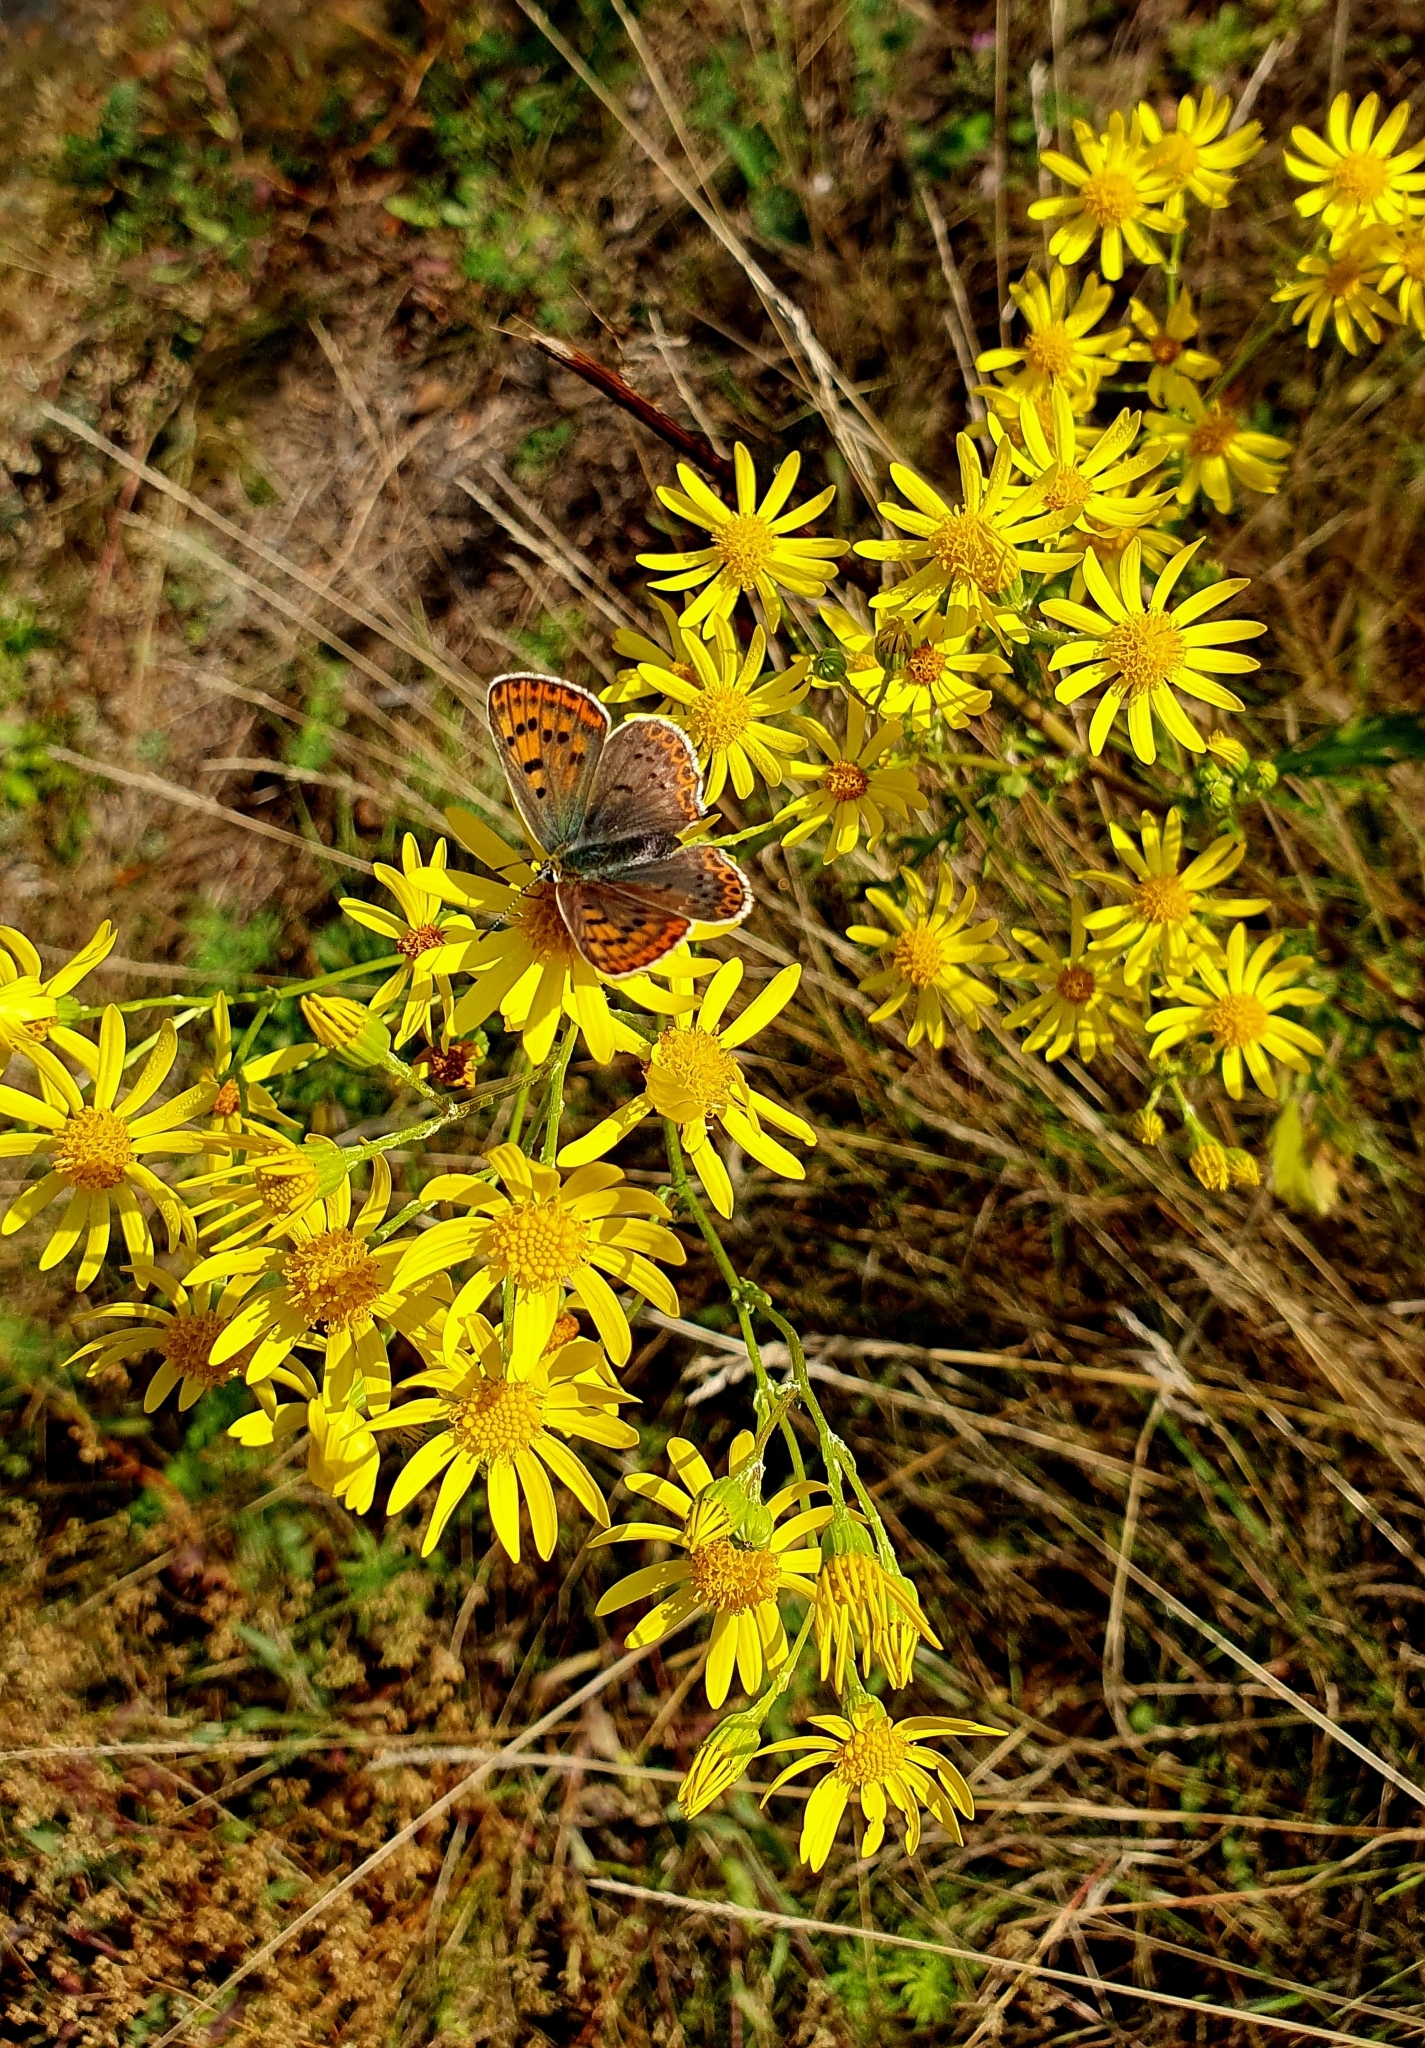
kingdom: Plantae
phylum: Tracheophyta
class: Magnoliopsida
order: Asterales
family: Asteraceae
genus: Jacobaea
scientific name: Jacobaea vulgaris
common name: Stinking willie
